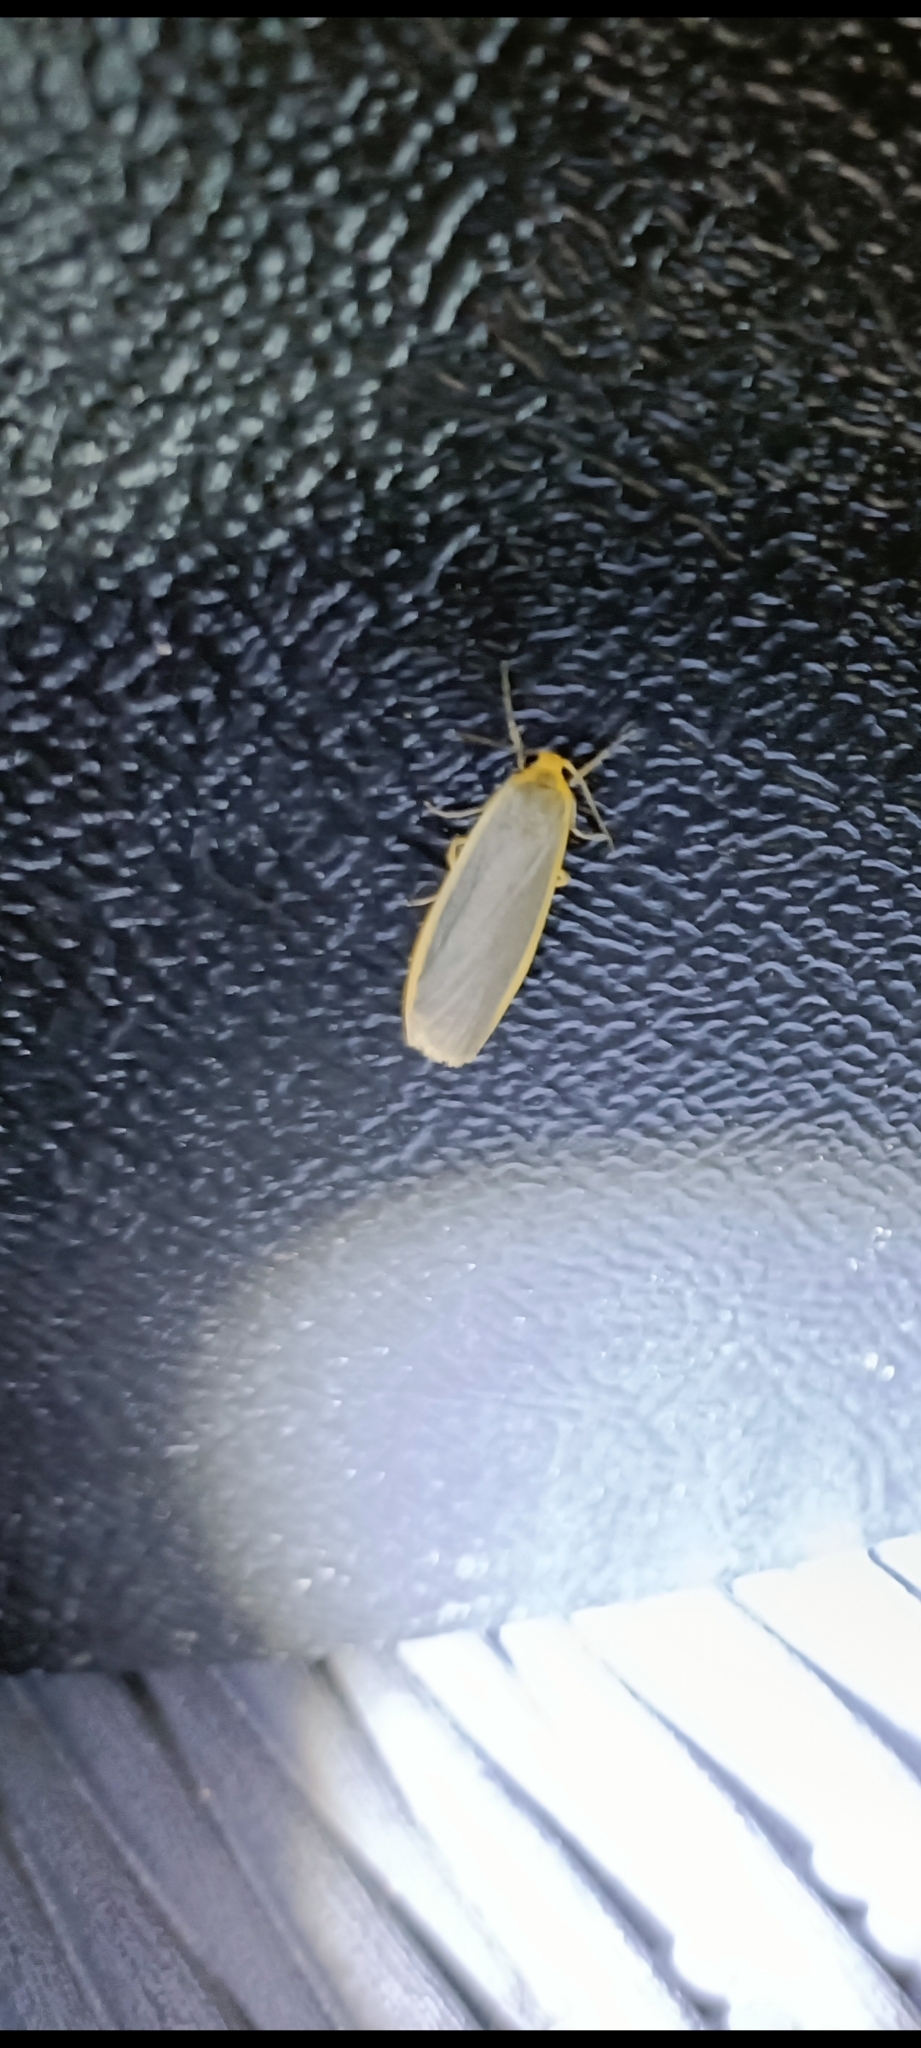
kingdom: Animalia
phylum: Arthropoda
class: Insecta
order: Lepidoptera
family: Erebidae
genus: Nyea
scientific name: Nyea lurideola
